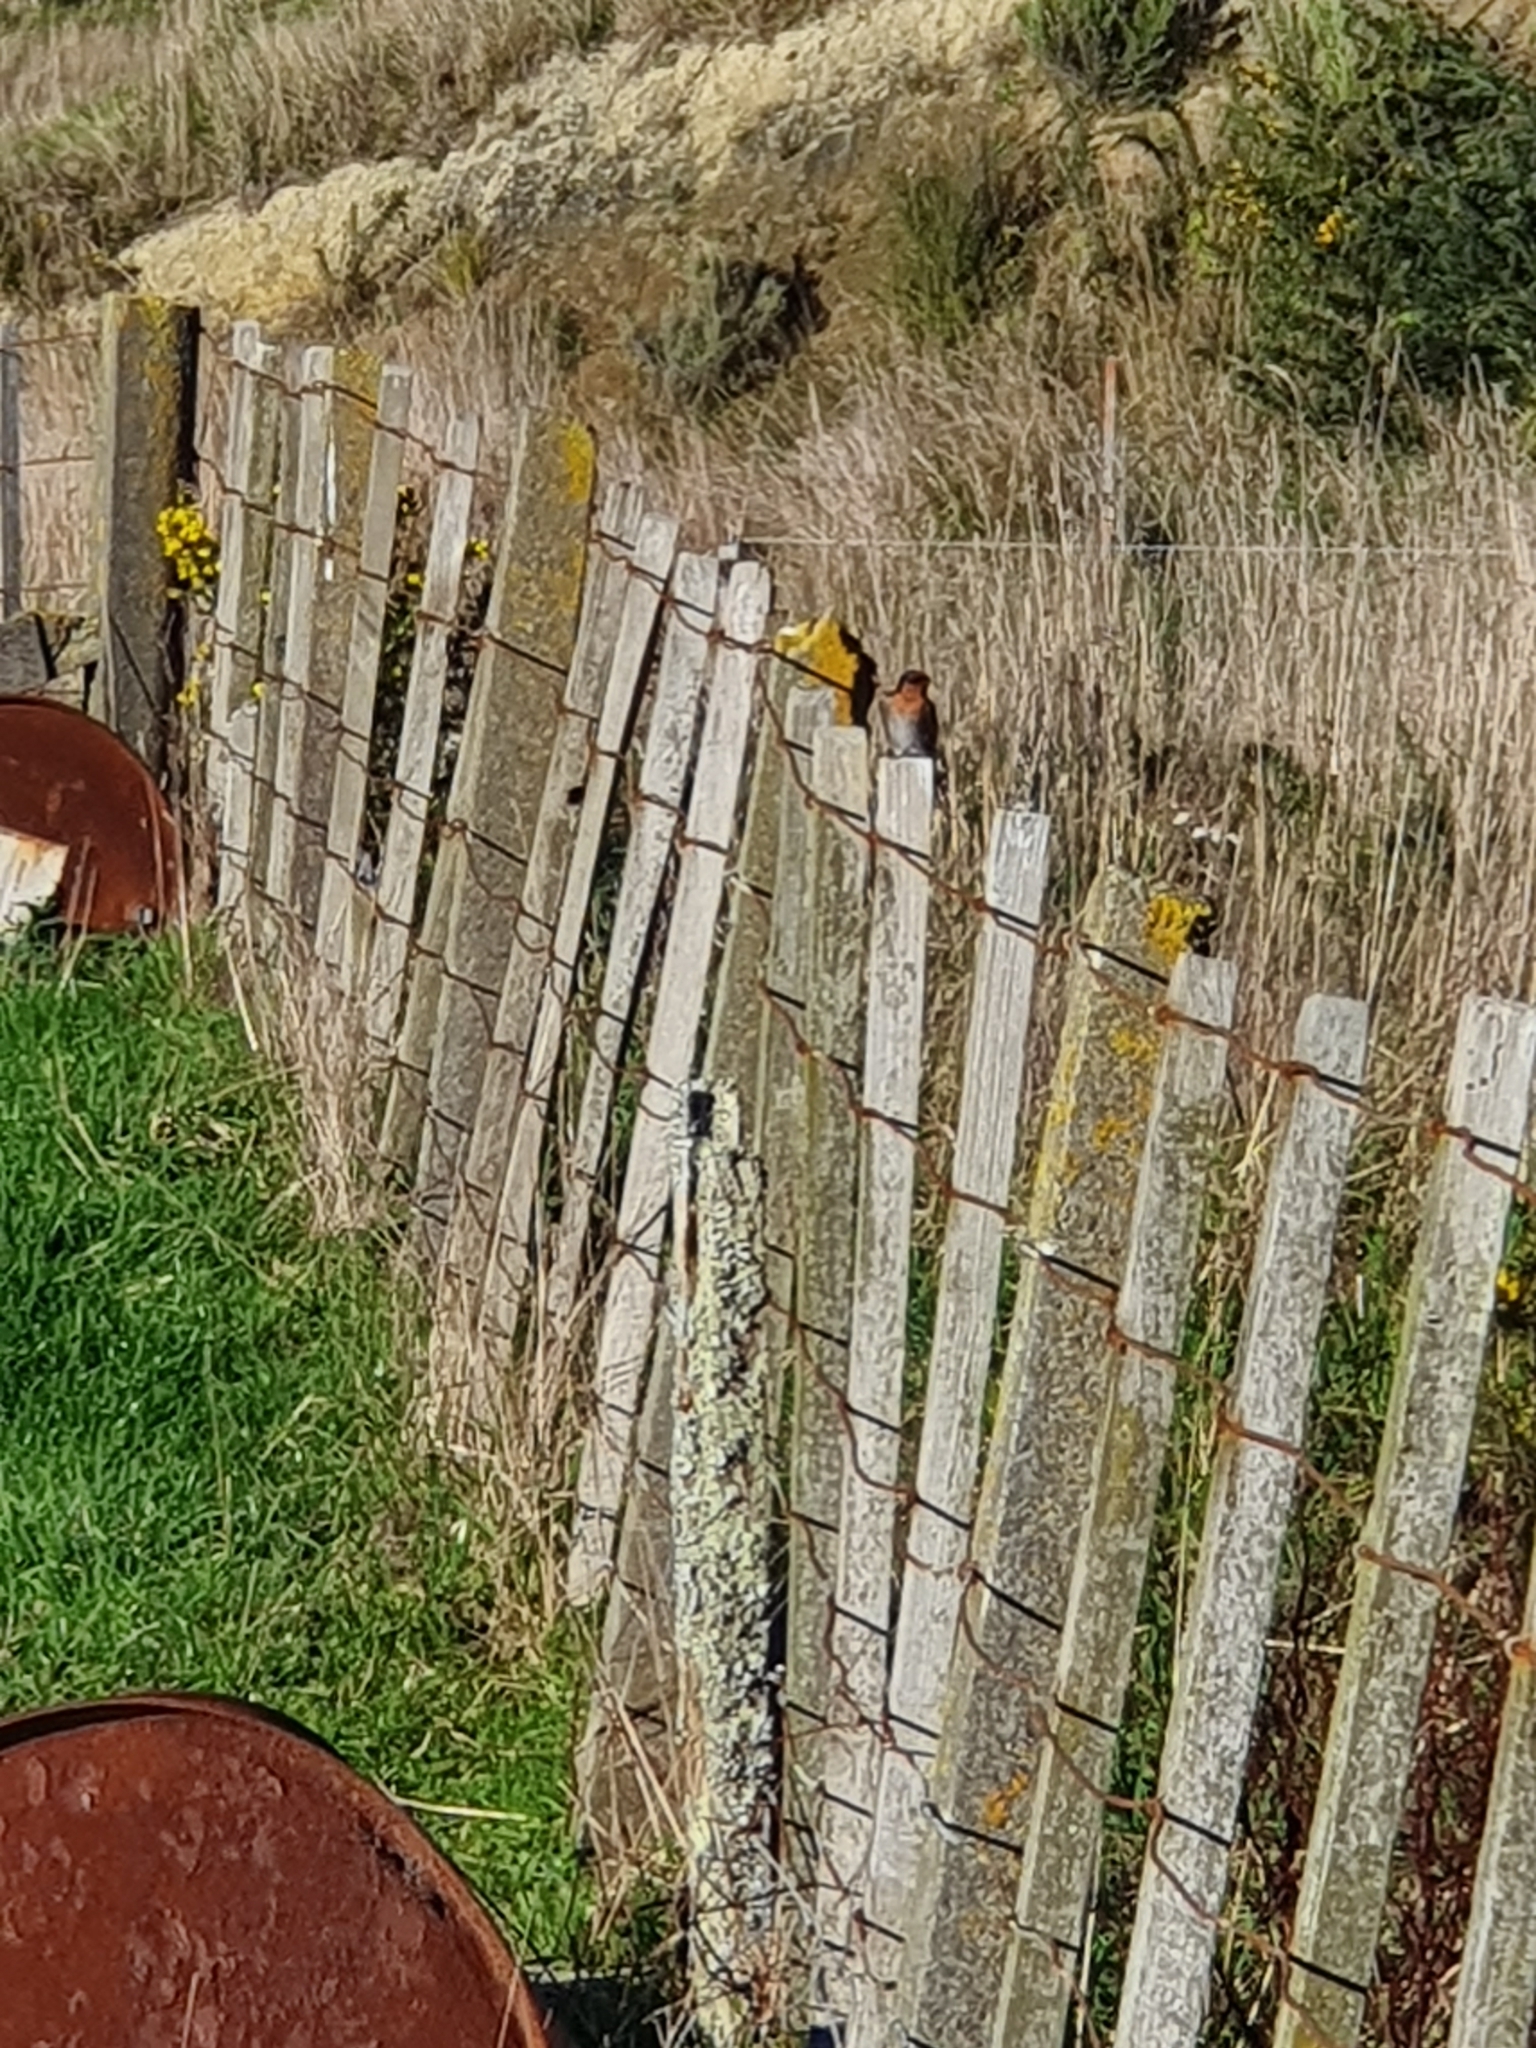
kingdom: Animalia
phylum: Chordata
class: Aves
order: Passeriformes
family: Hirundinidae
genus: Hirundo
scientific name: Hirundo neoxena
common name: Welcome swallow
